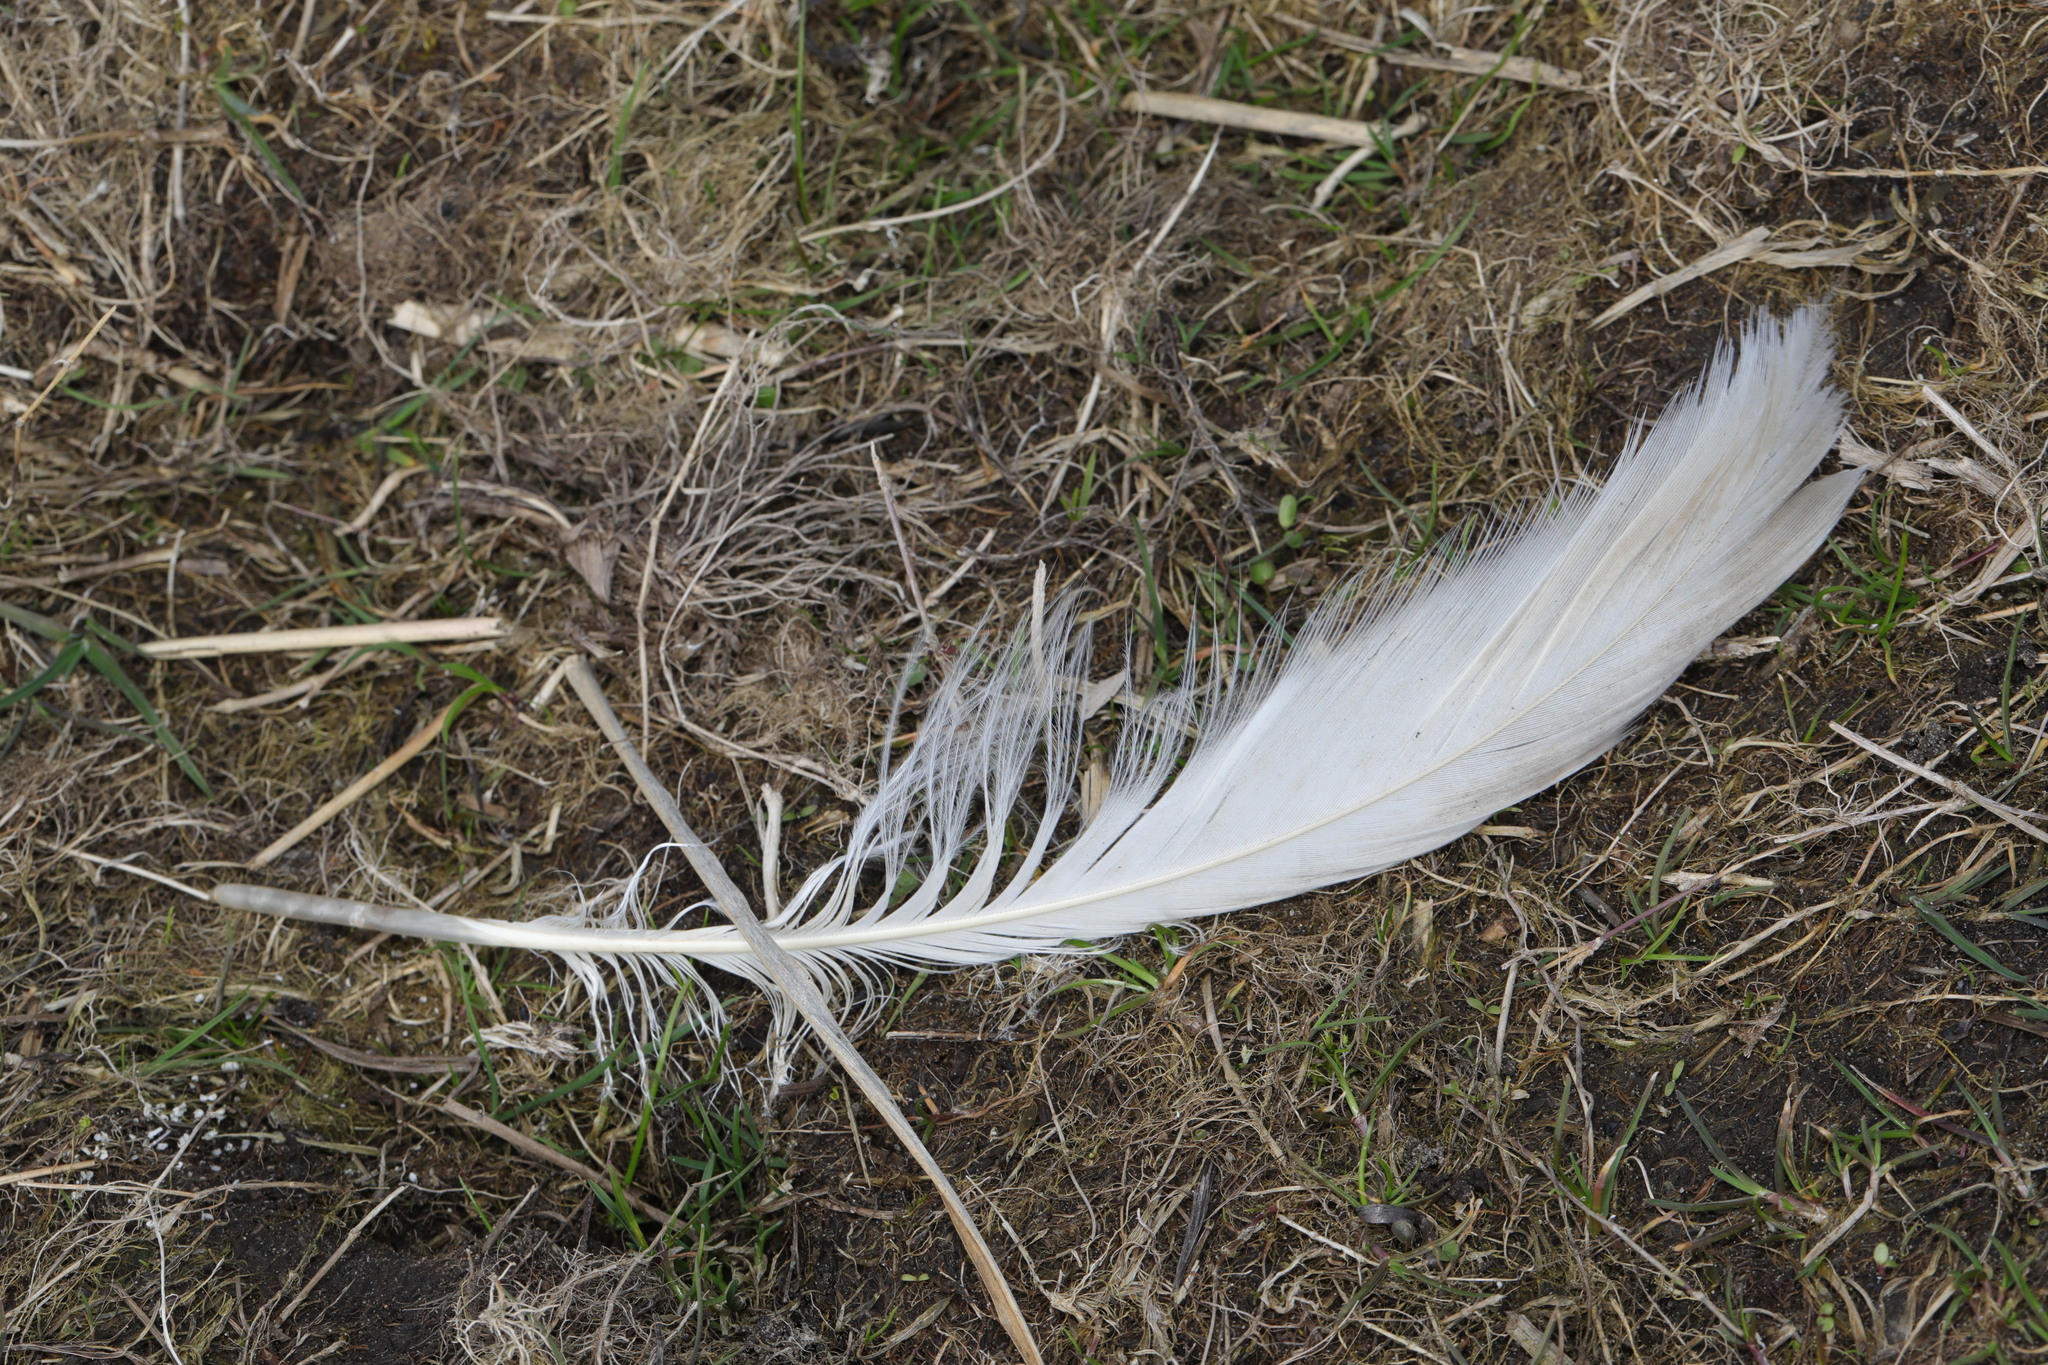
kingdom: Animalia
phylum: Chordata
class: Aves
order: Anseriformes
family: Anatidae
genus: Cygnus
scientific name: Cygnus olor
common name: Mute swan
